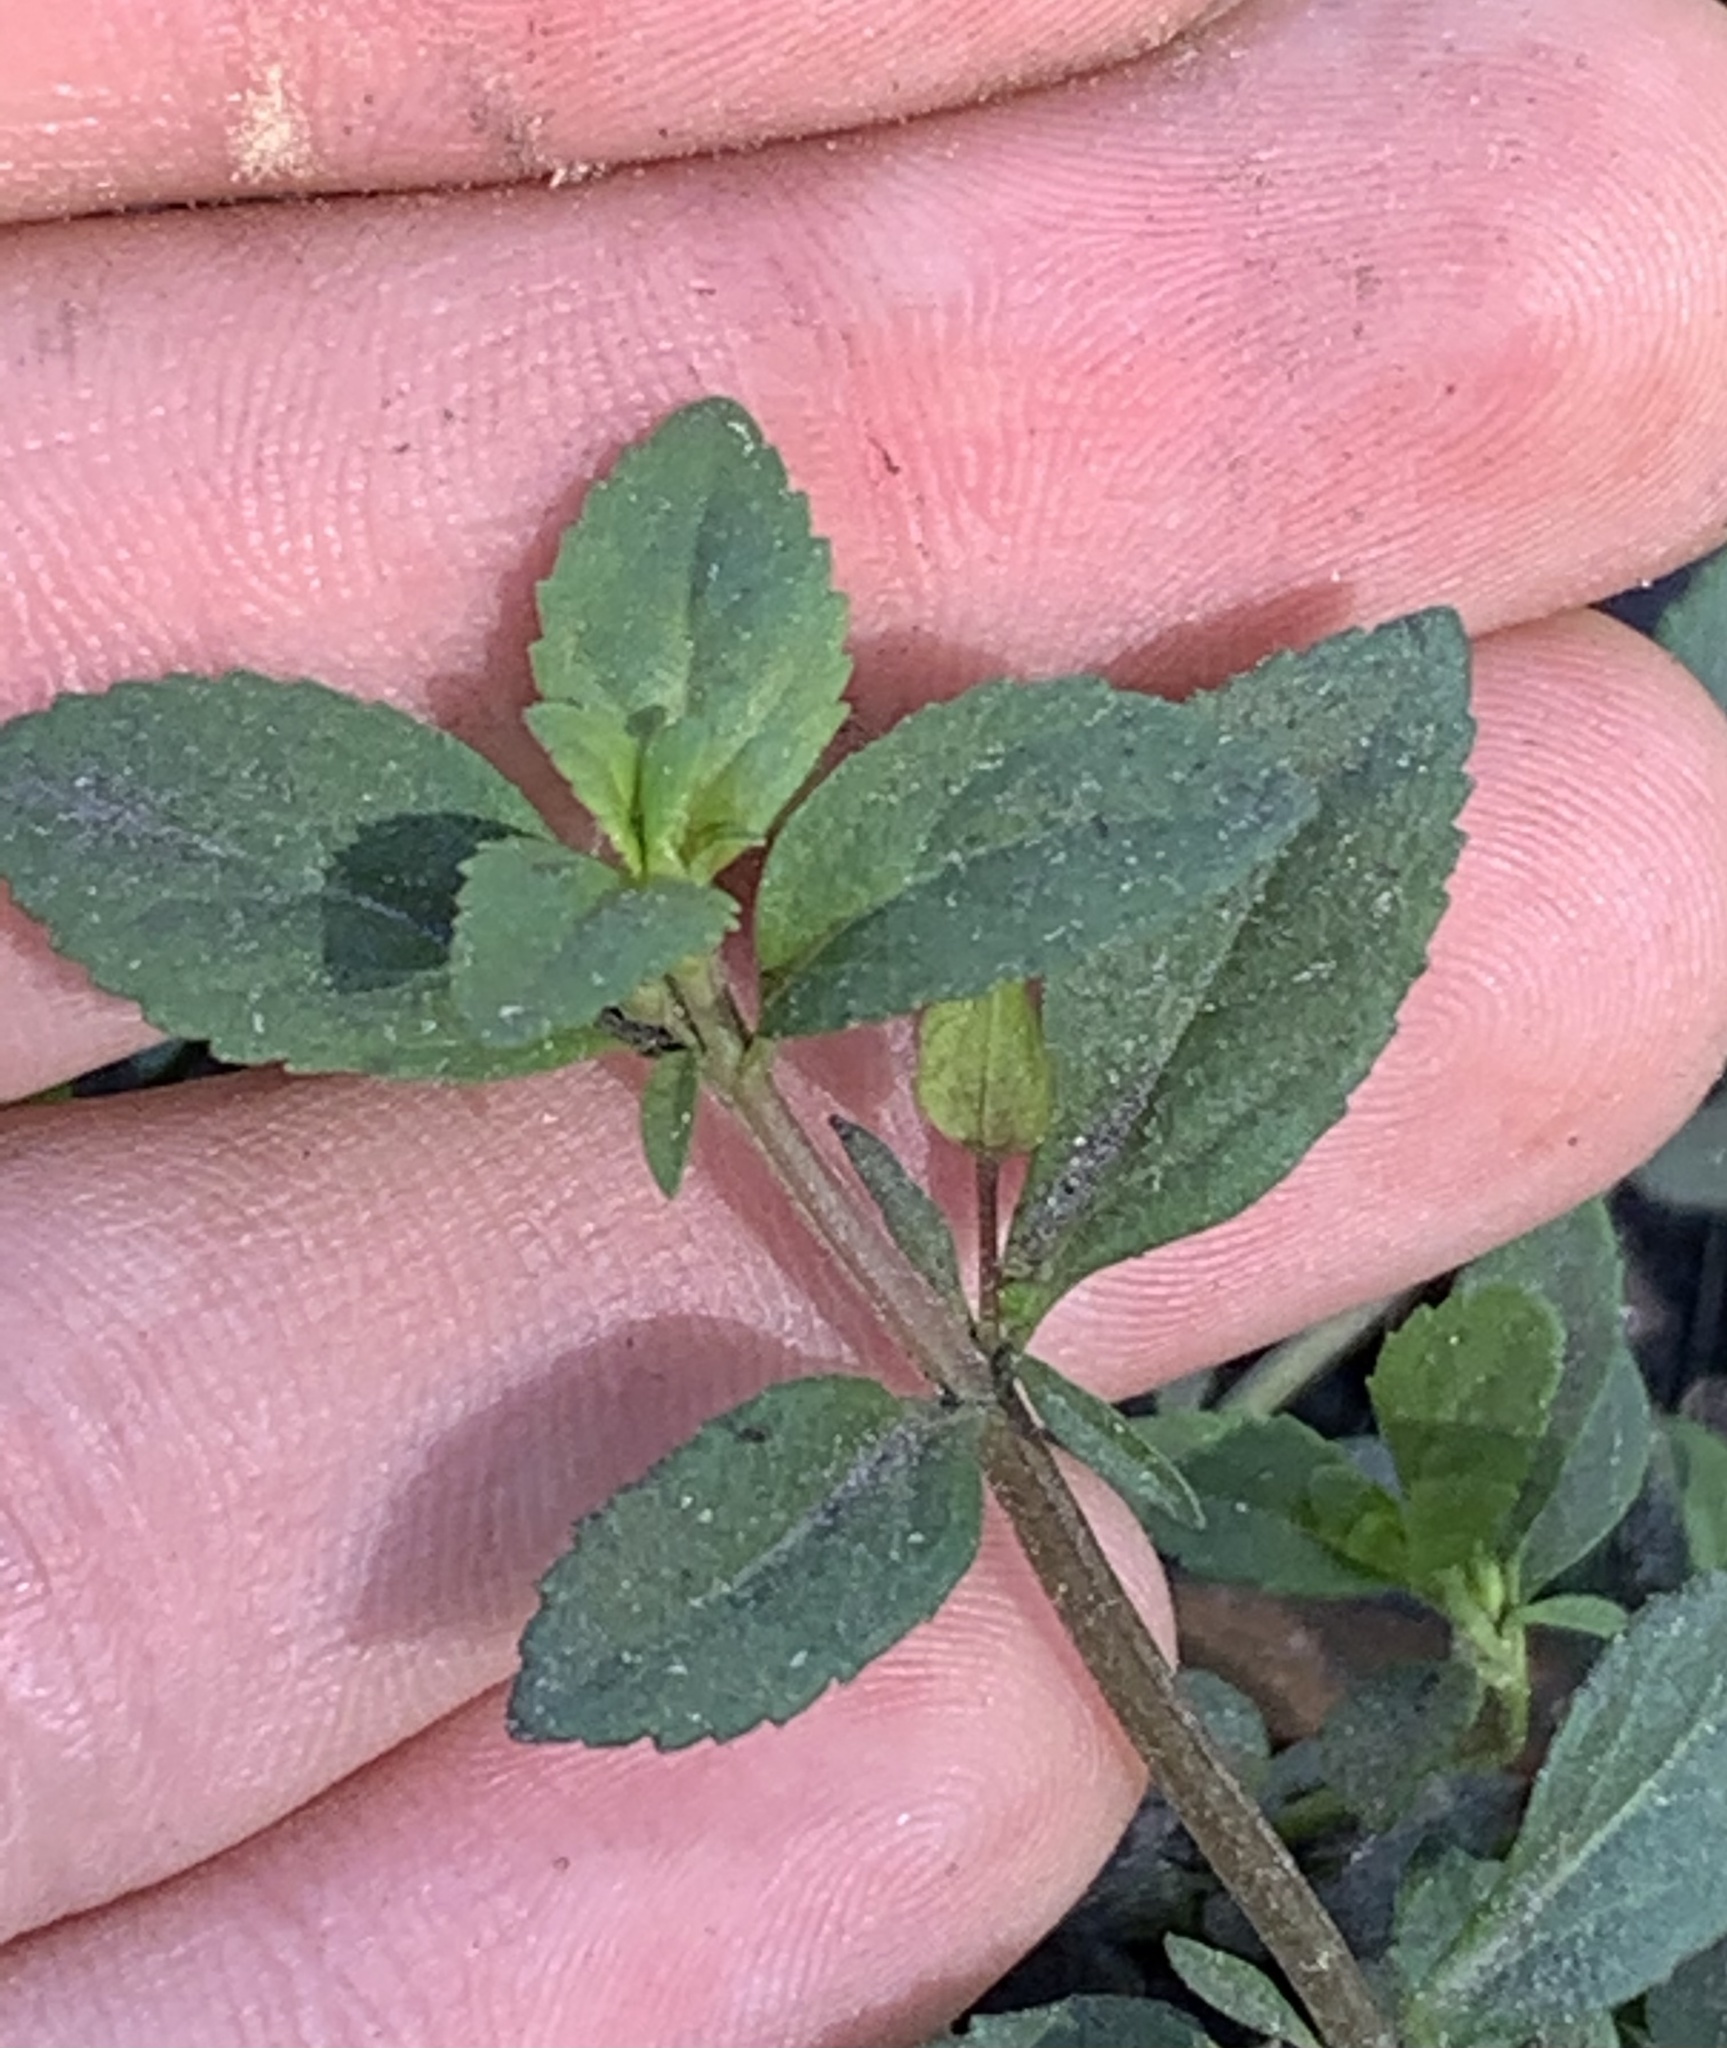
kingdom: Plantae
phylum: Tracheophyta
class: Magnoliopsida
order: Lamiales
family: Plantaginaceae
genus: Mecardonia
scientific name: Mecardonia procumbens
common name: Baby jump-up
